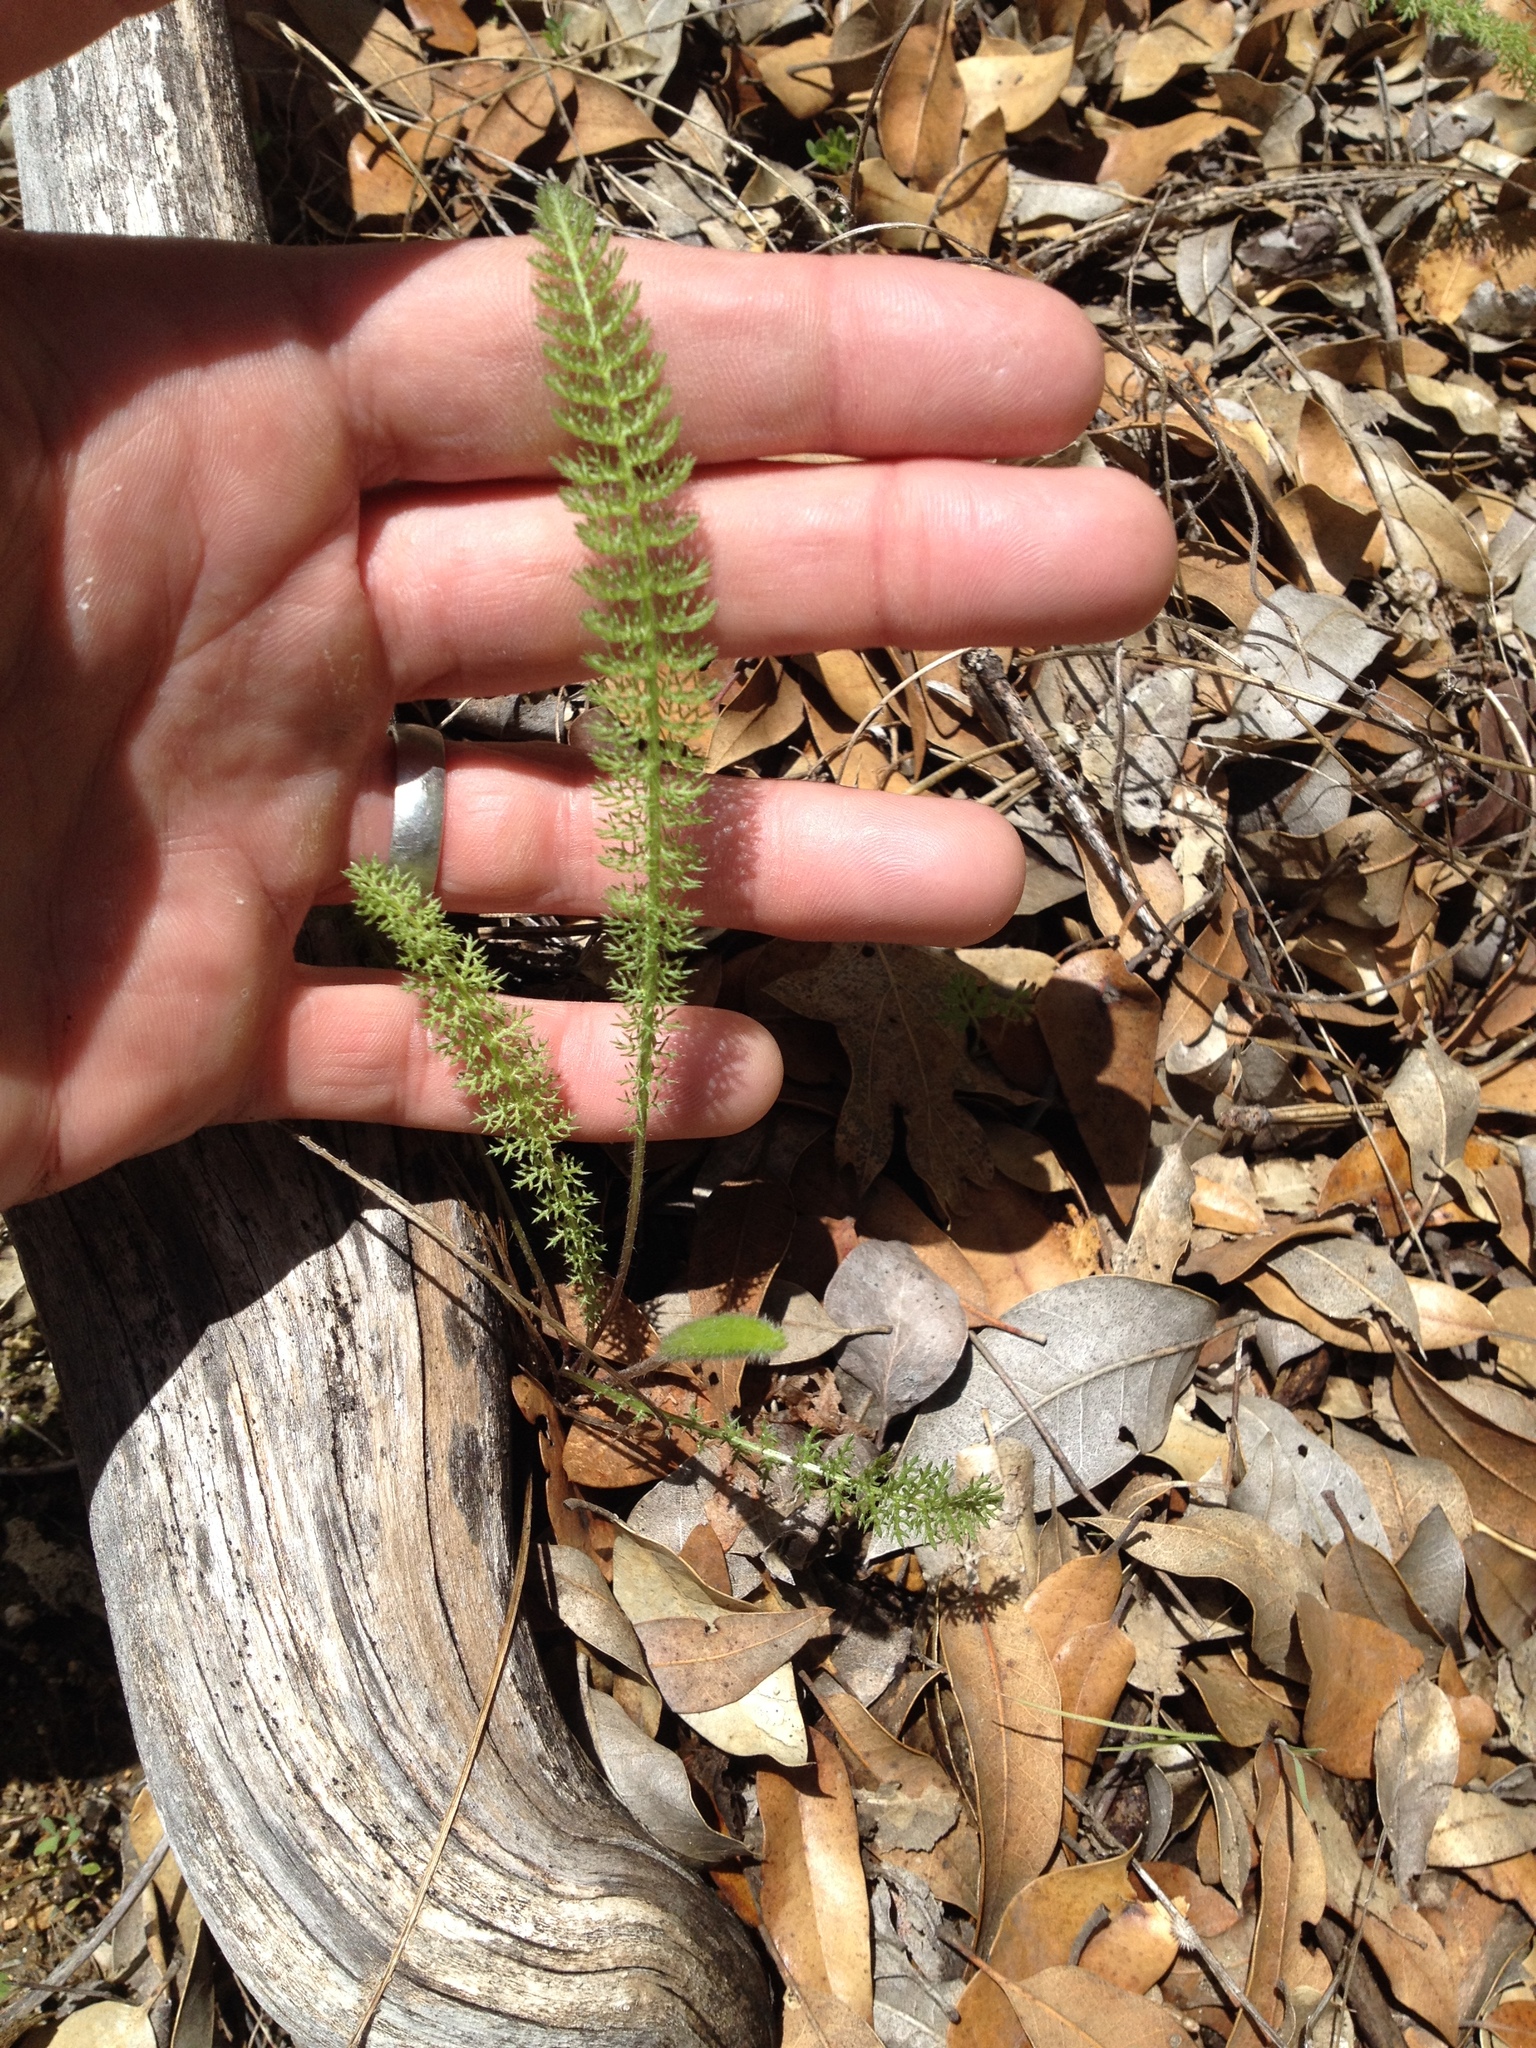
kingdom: Plantae
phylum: Tracheophyta
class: Magnoliopsida
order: Asterales
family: Asteraceae
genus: Achillea
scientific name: Achillea millefolium
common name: Yarrow
